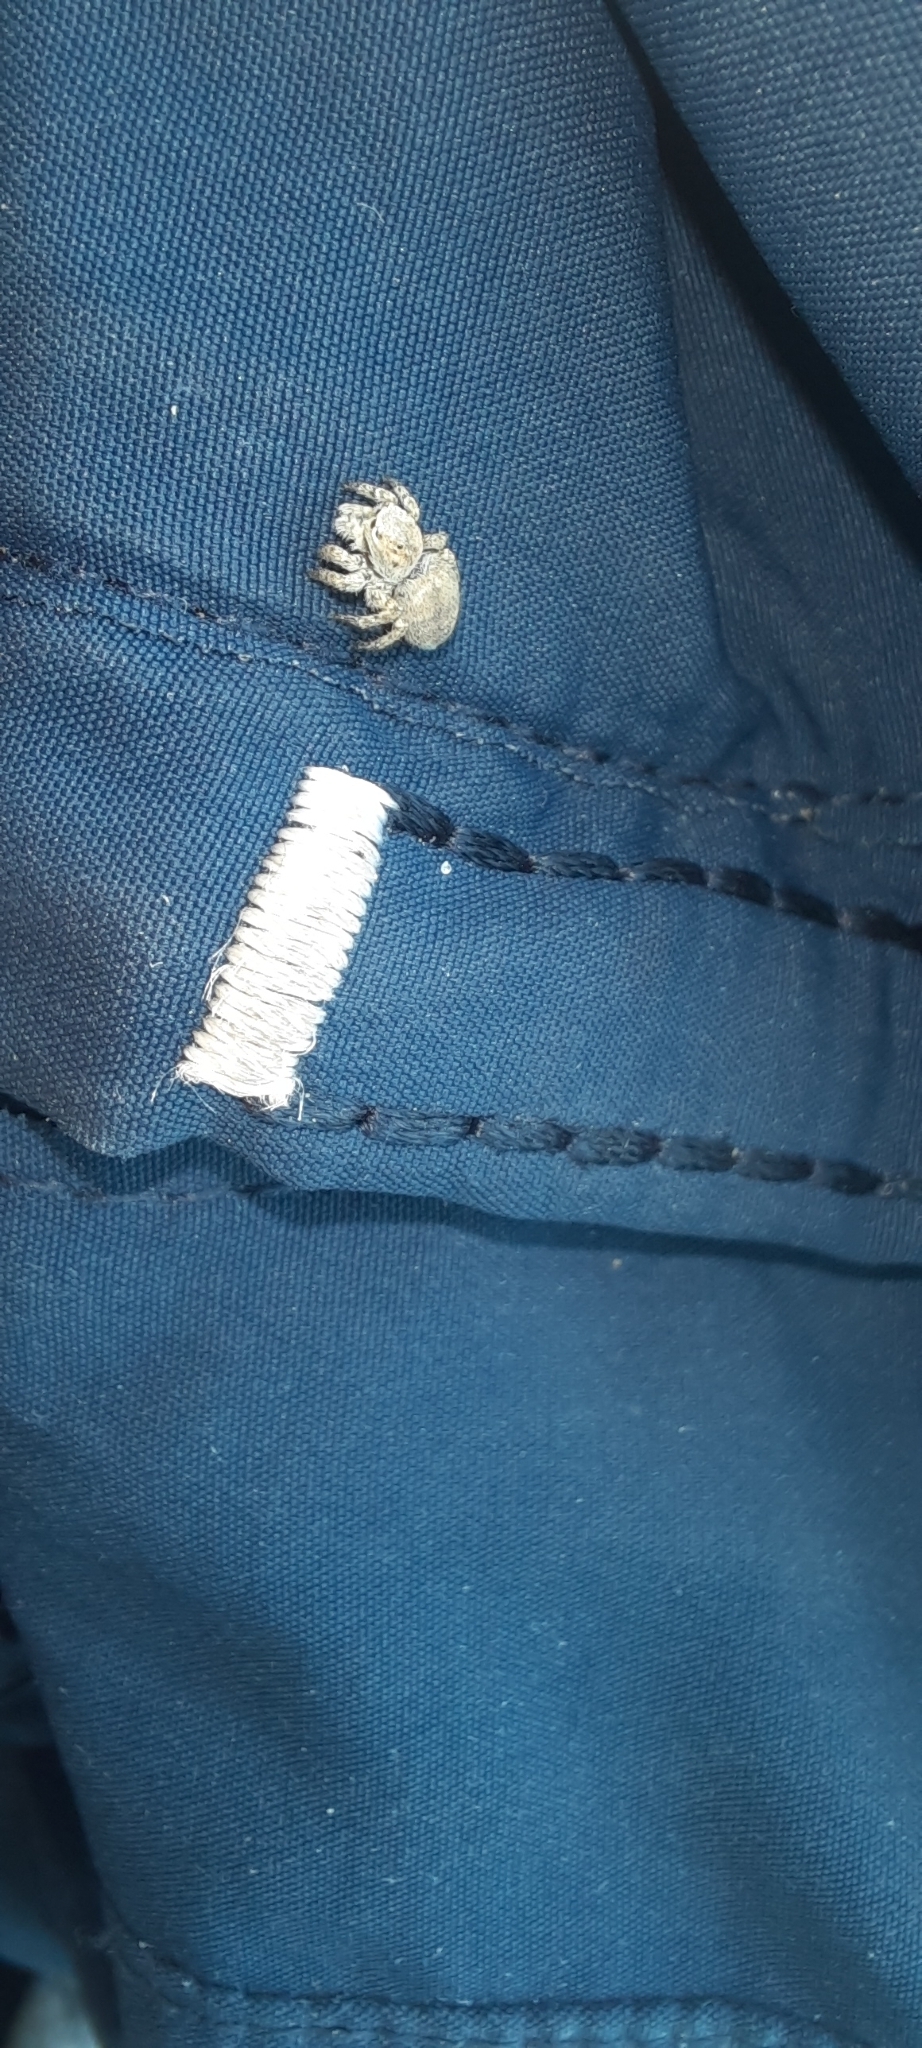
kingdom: Animalia
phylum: Arthropoda
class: Arachnida
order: Araneae
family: Salticidae
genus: Aelurillus
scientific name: Aelurillus v-insignitus
